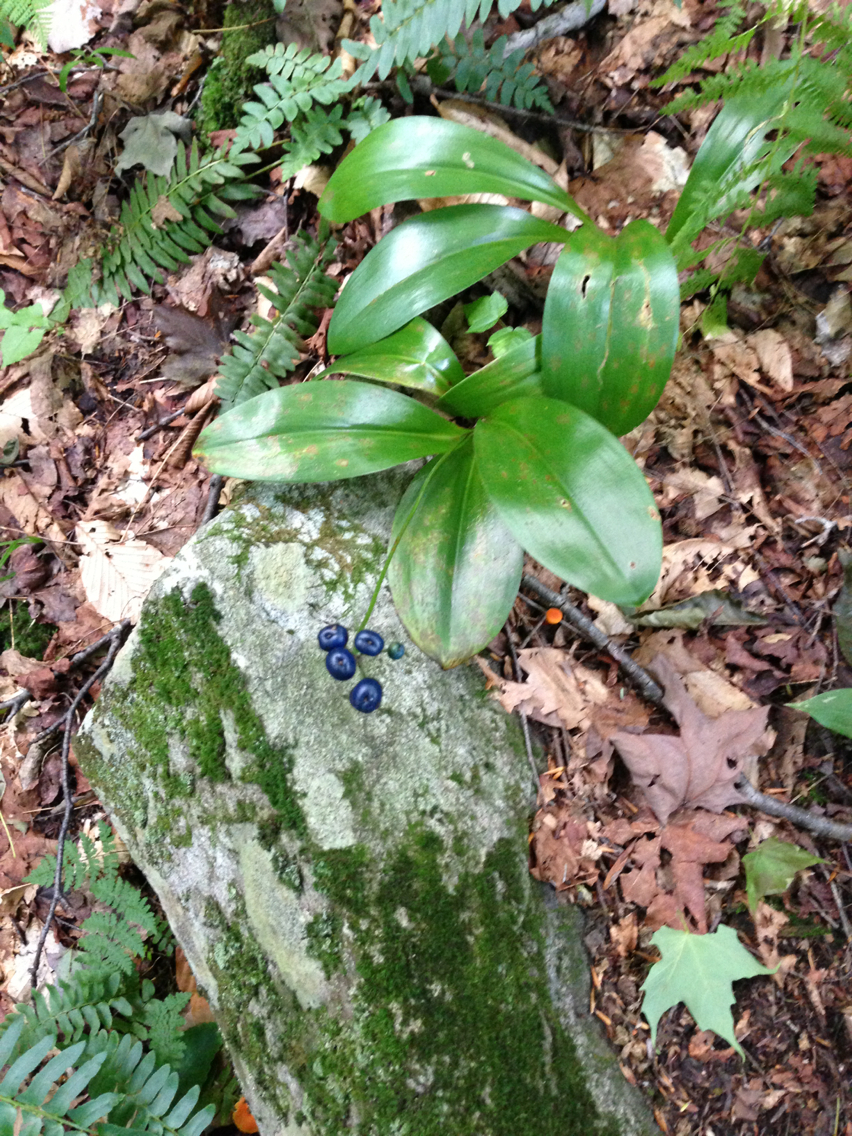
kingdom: Plantae
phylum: Tracheophyta
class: Liliopsida
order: Liliales
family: Liliaceae
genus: Clintonia
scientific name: Clintonia borealis
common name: Yellow clintonia
